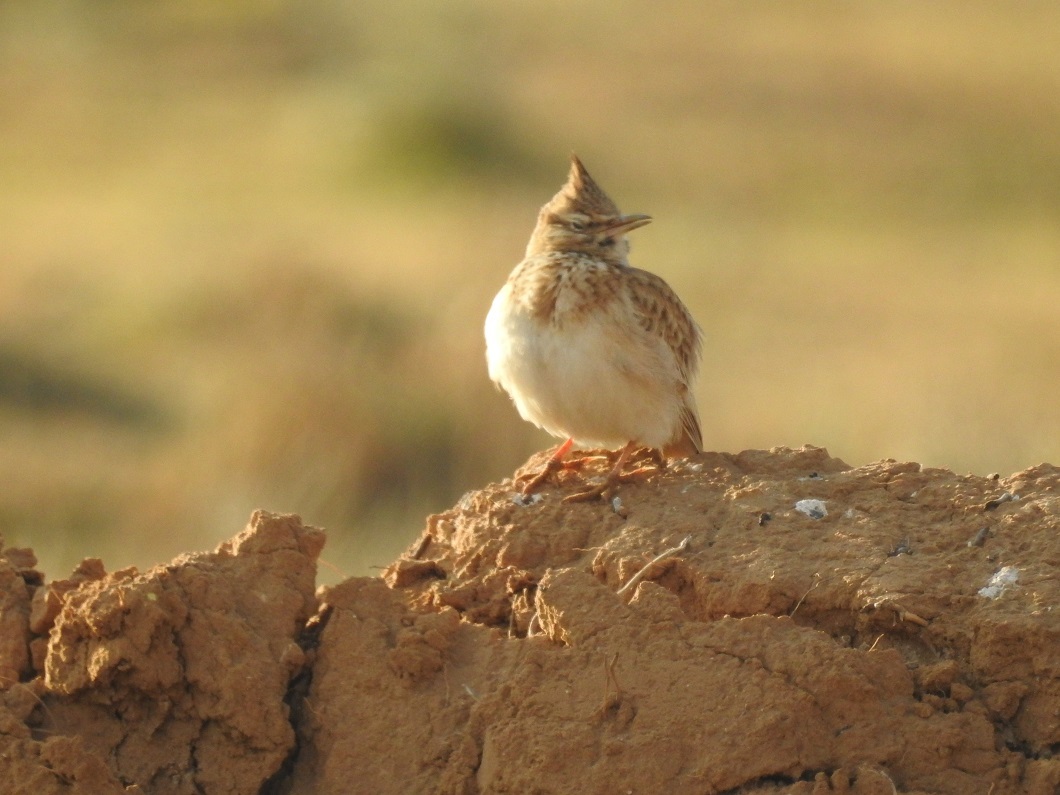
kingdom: Animalia
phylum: Chordata
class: Aves
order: Passeriformes
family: Alaudidae
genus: Galerida
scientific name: Galerida cristata
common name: Crested lark
